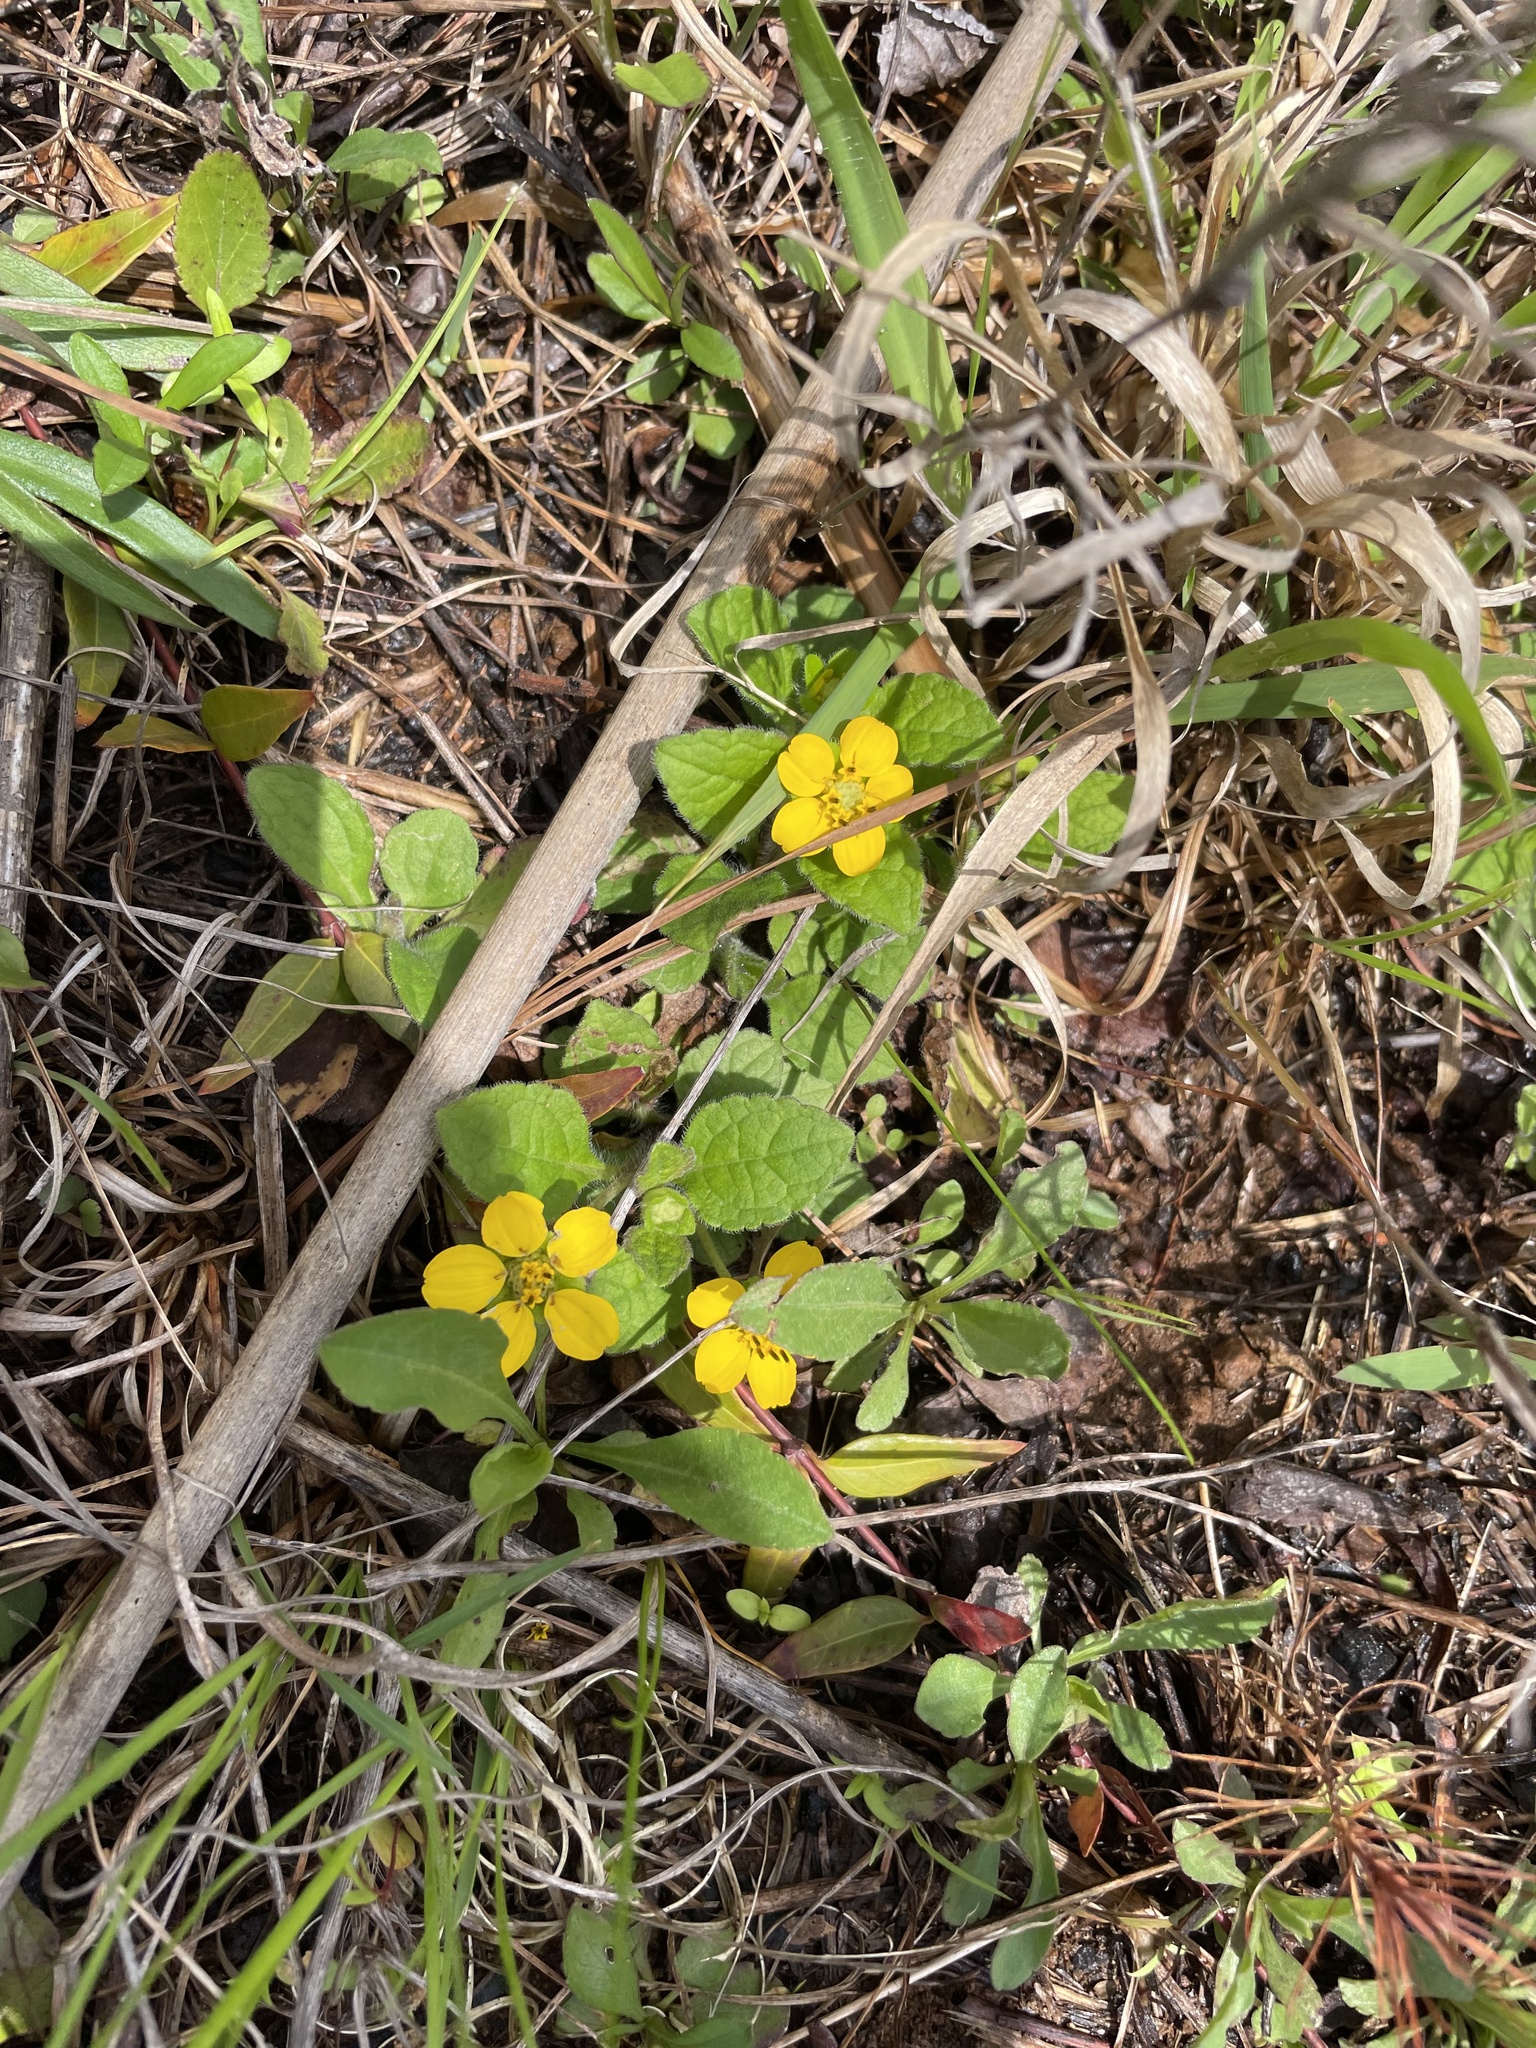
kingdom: Plantae
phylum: Tracheophyta
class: Magnoliopsida
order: Asterales
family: Asteraceae
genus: Chrysogonum
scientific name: Chrysogonum virginianum
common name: Golden-knee
